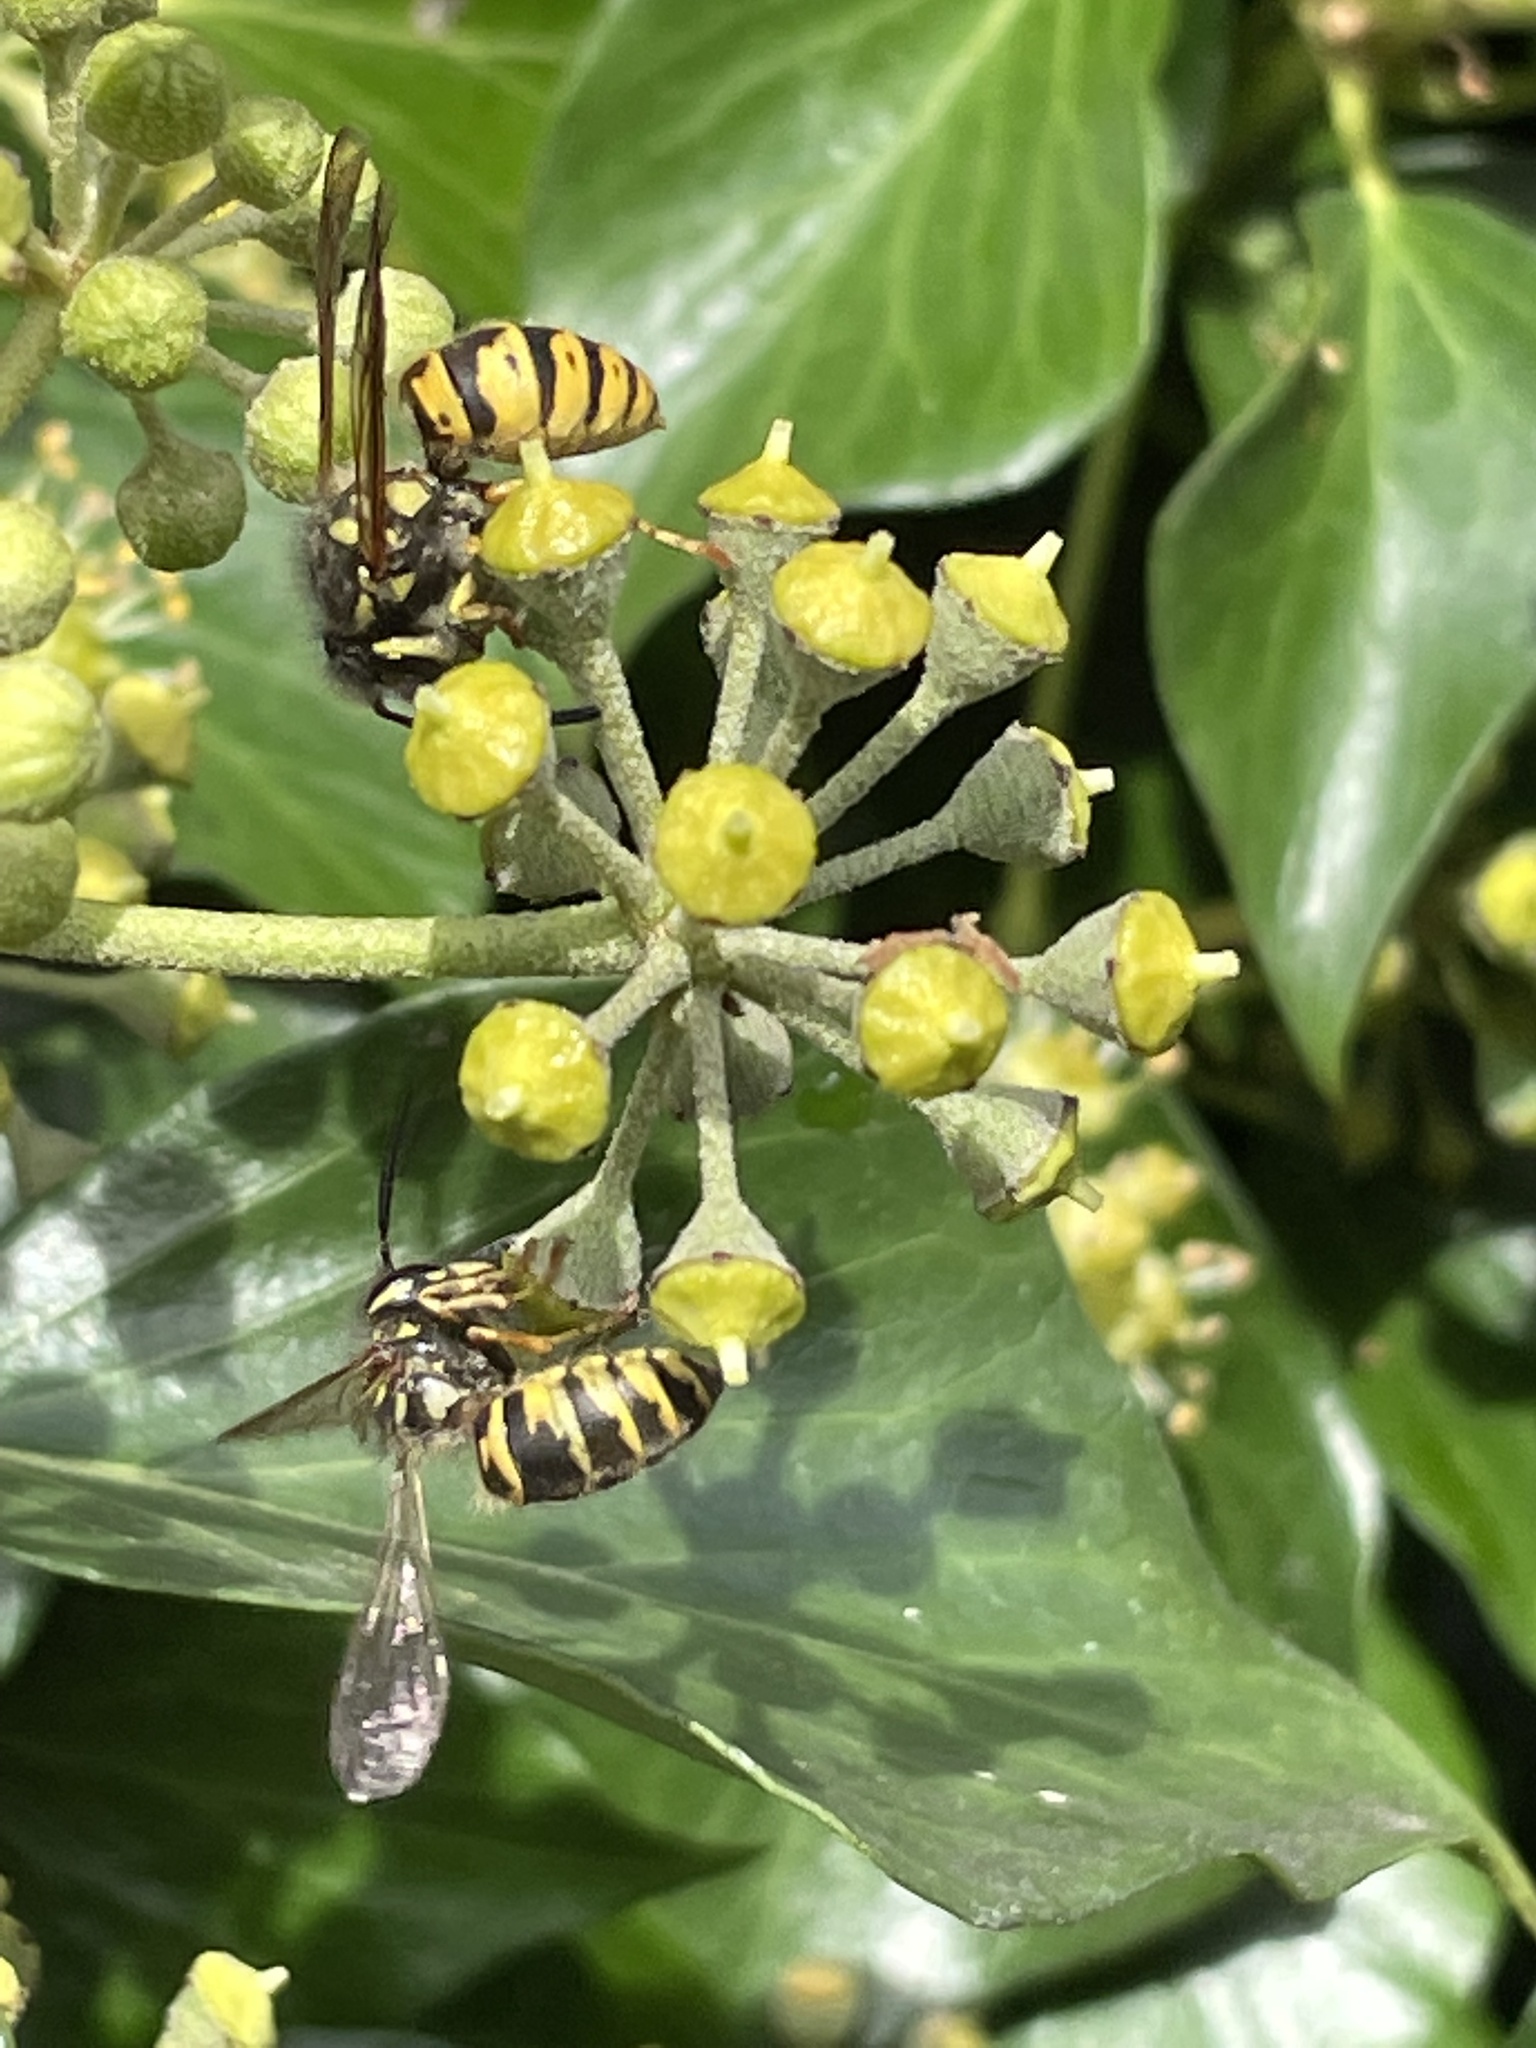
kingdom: Animalia
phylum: Arthropoda
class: Insecta
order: Hymenoptera
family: Vespidae
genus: Vespula
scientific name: Vespula germanica
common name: German wasp
